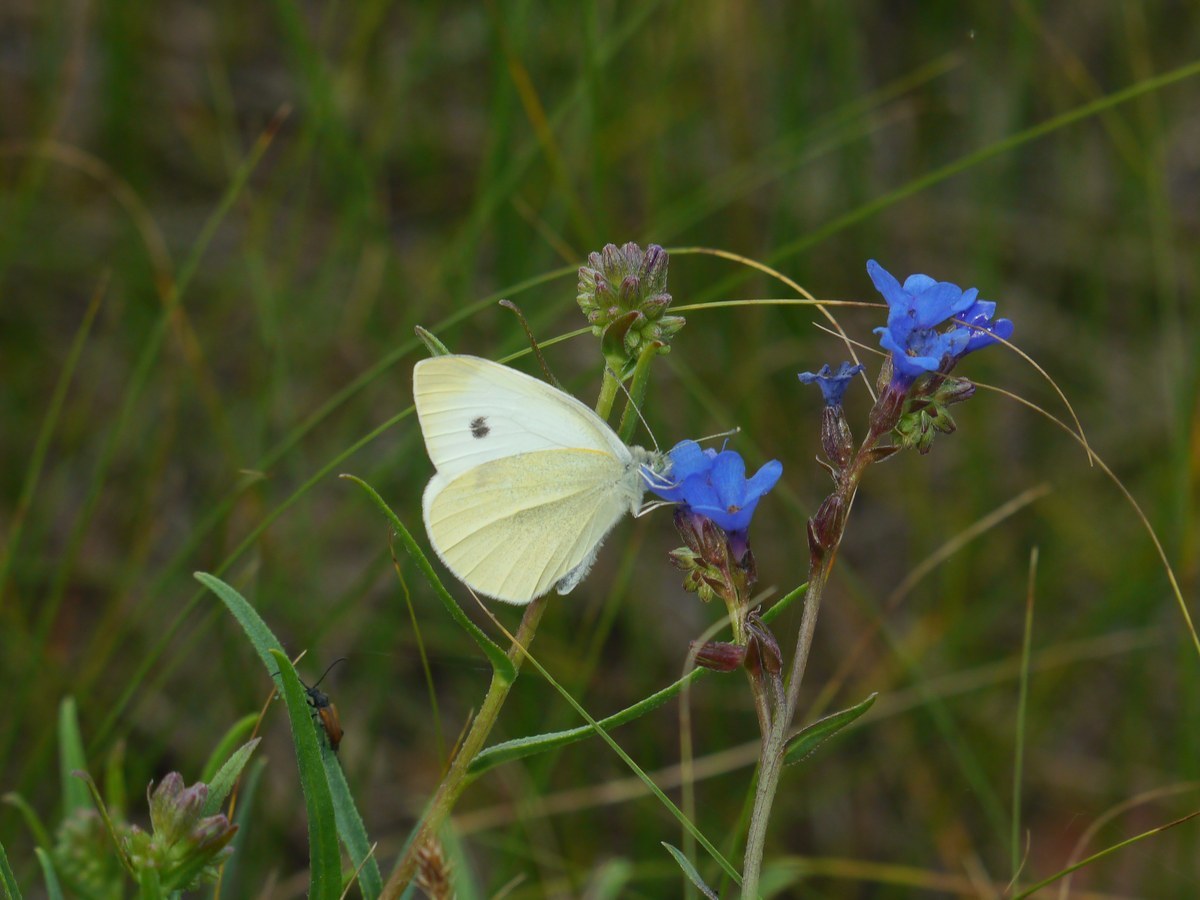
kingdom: Animalia
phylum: Arthropoda
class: Insecta
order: Lepidoptera
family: Pieridae
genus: Pieris
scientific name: Pieris rapae
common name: Small white
